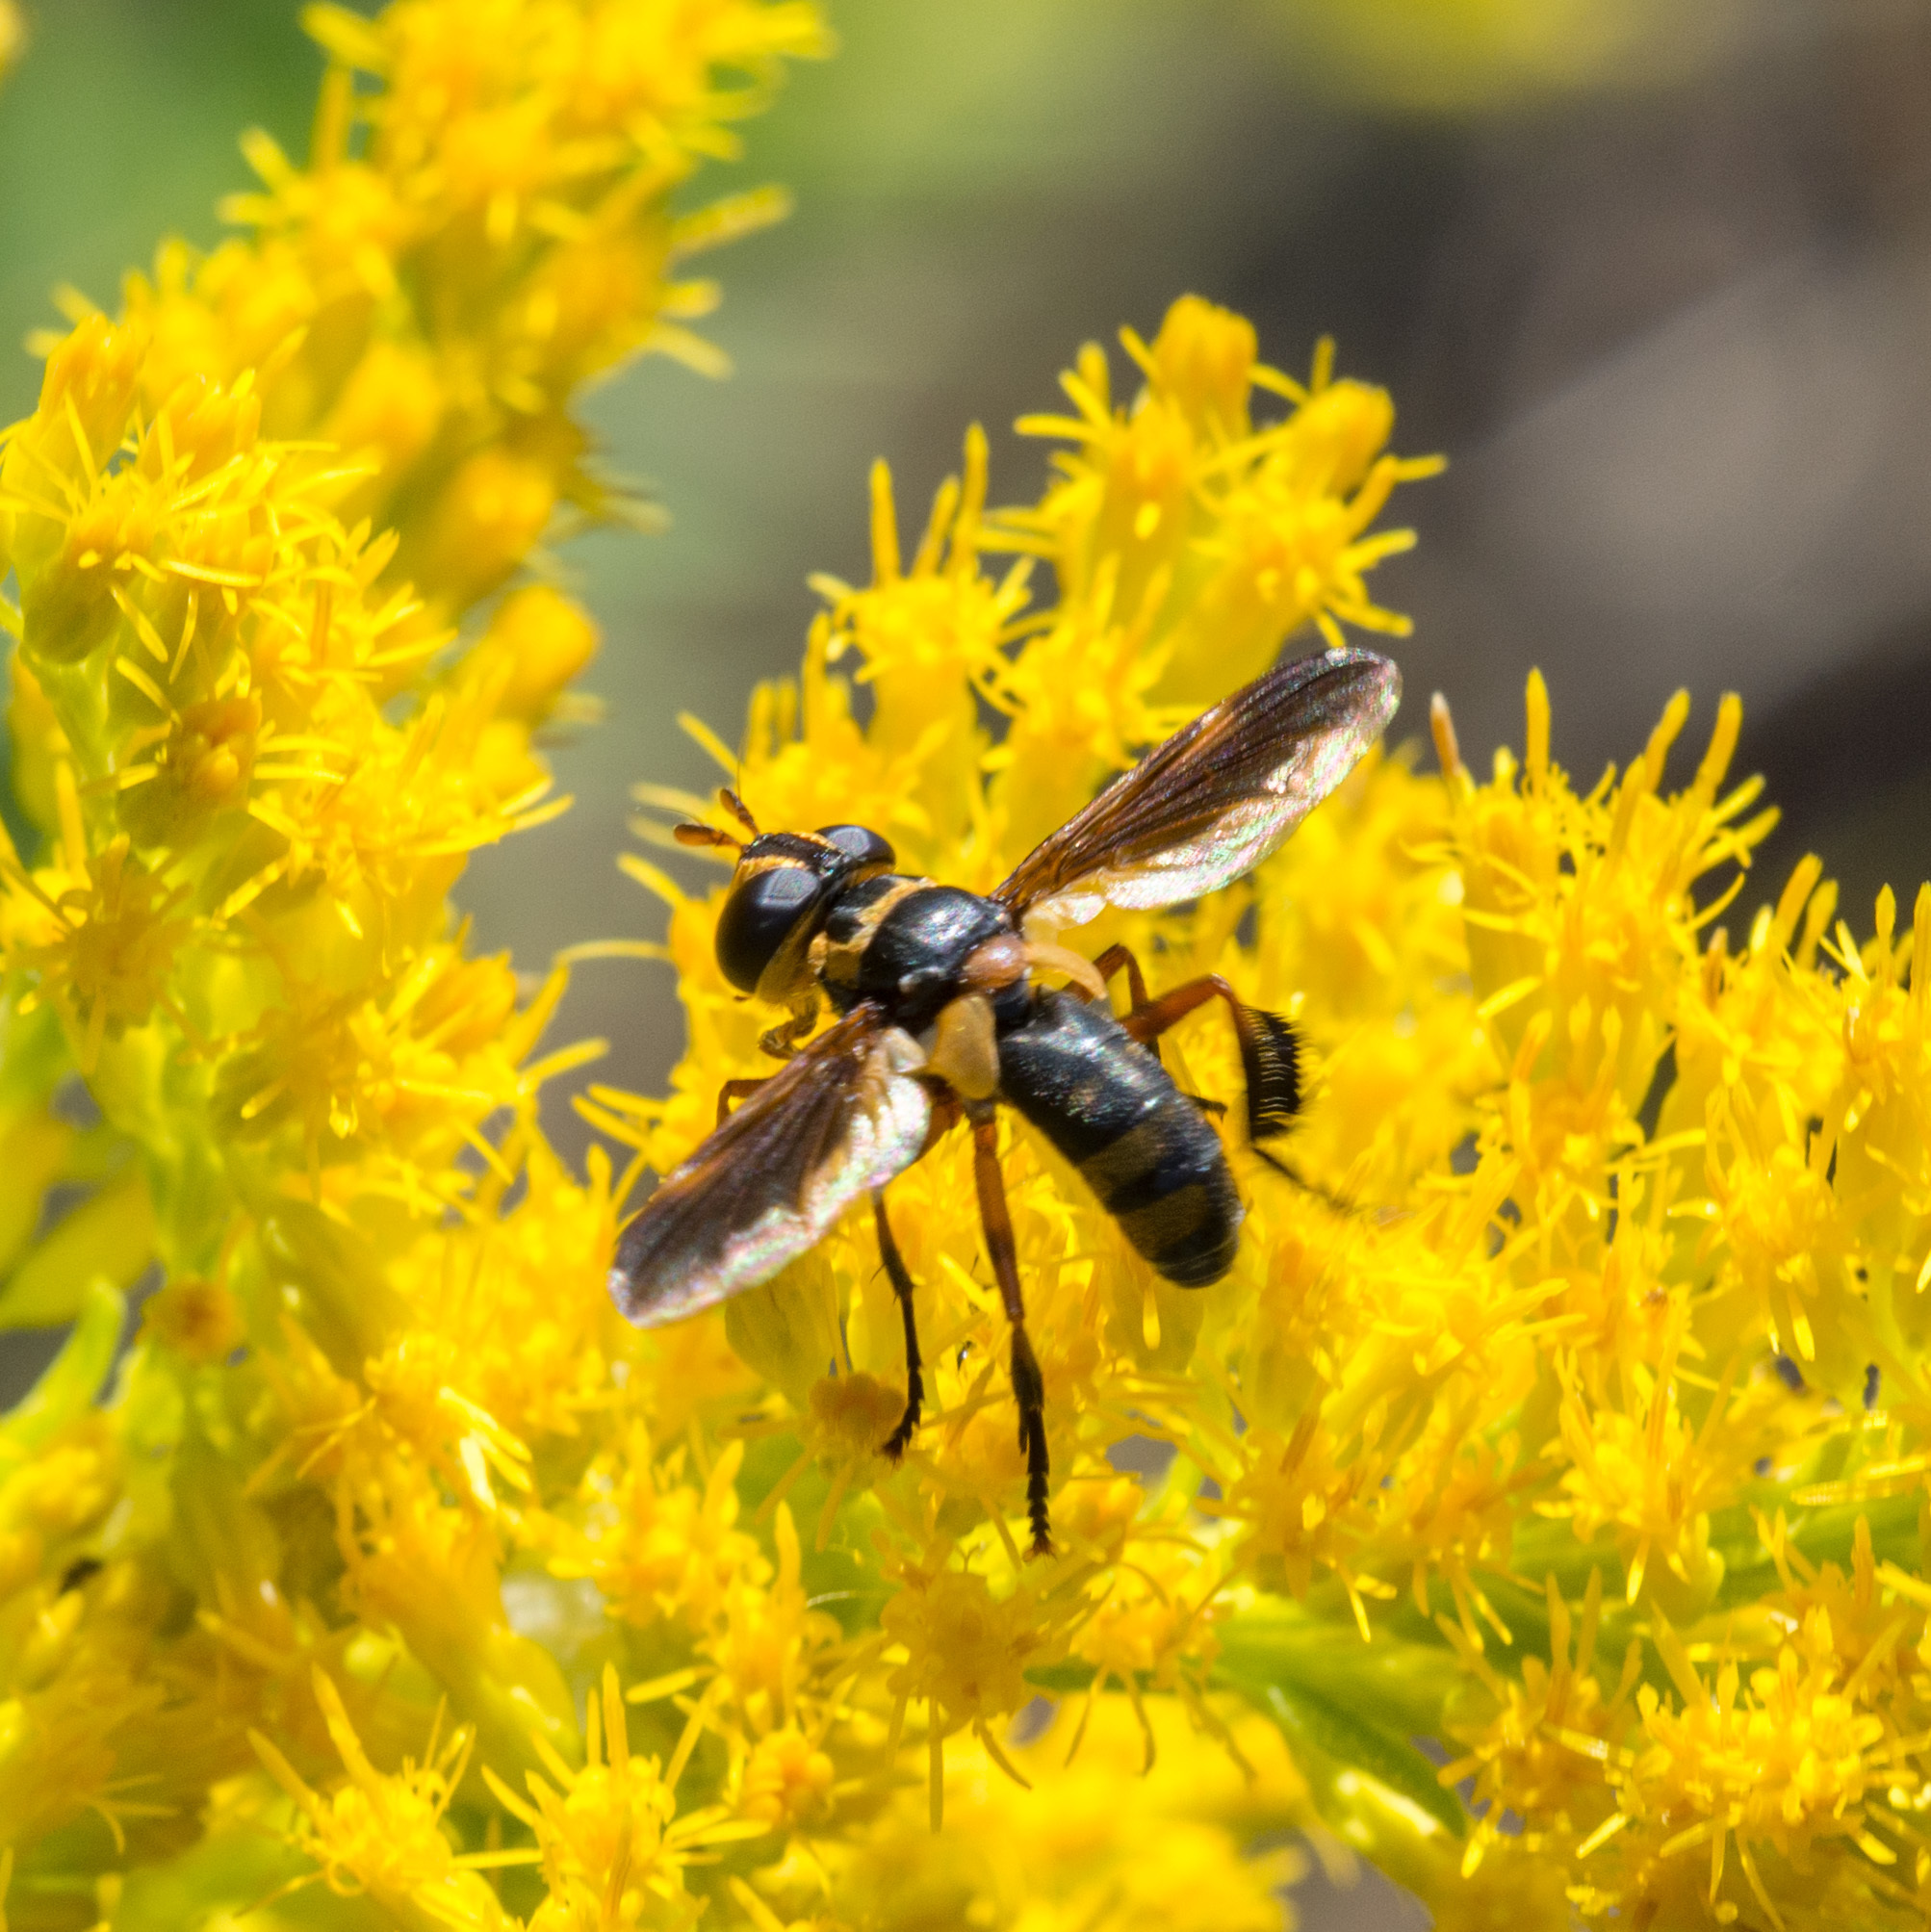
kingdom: Animalia
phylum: Arthropoda
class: Insecta
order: Diptera
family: Tachinidae
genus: Trichopoda
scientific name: Trichopoda plumipes
